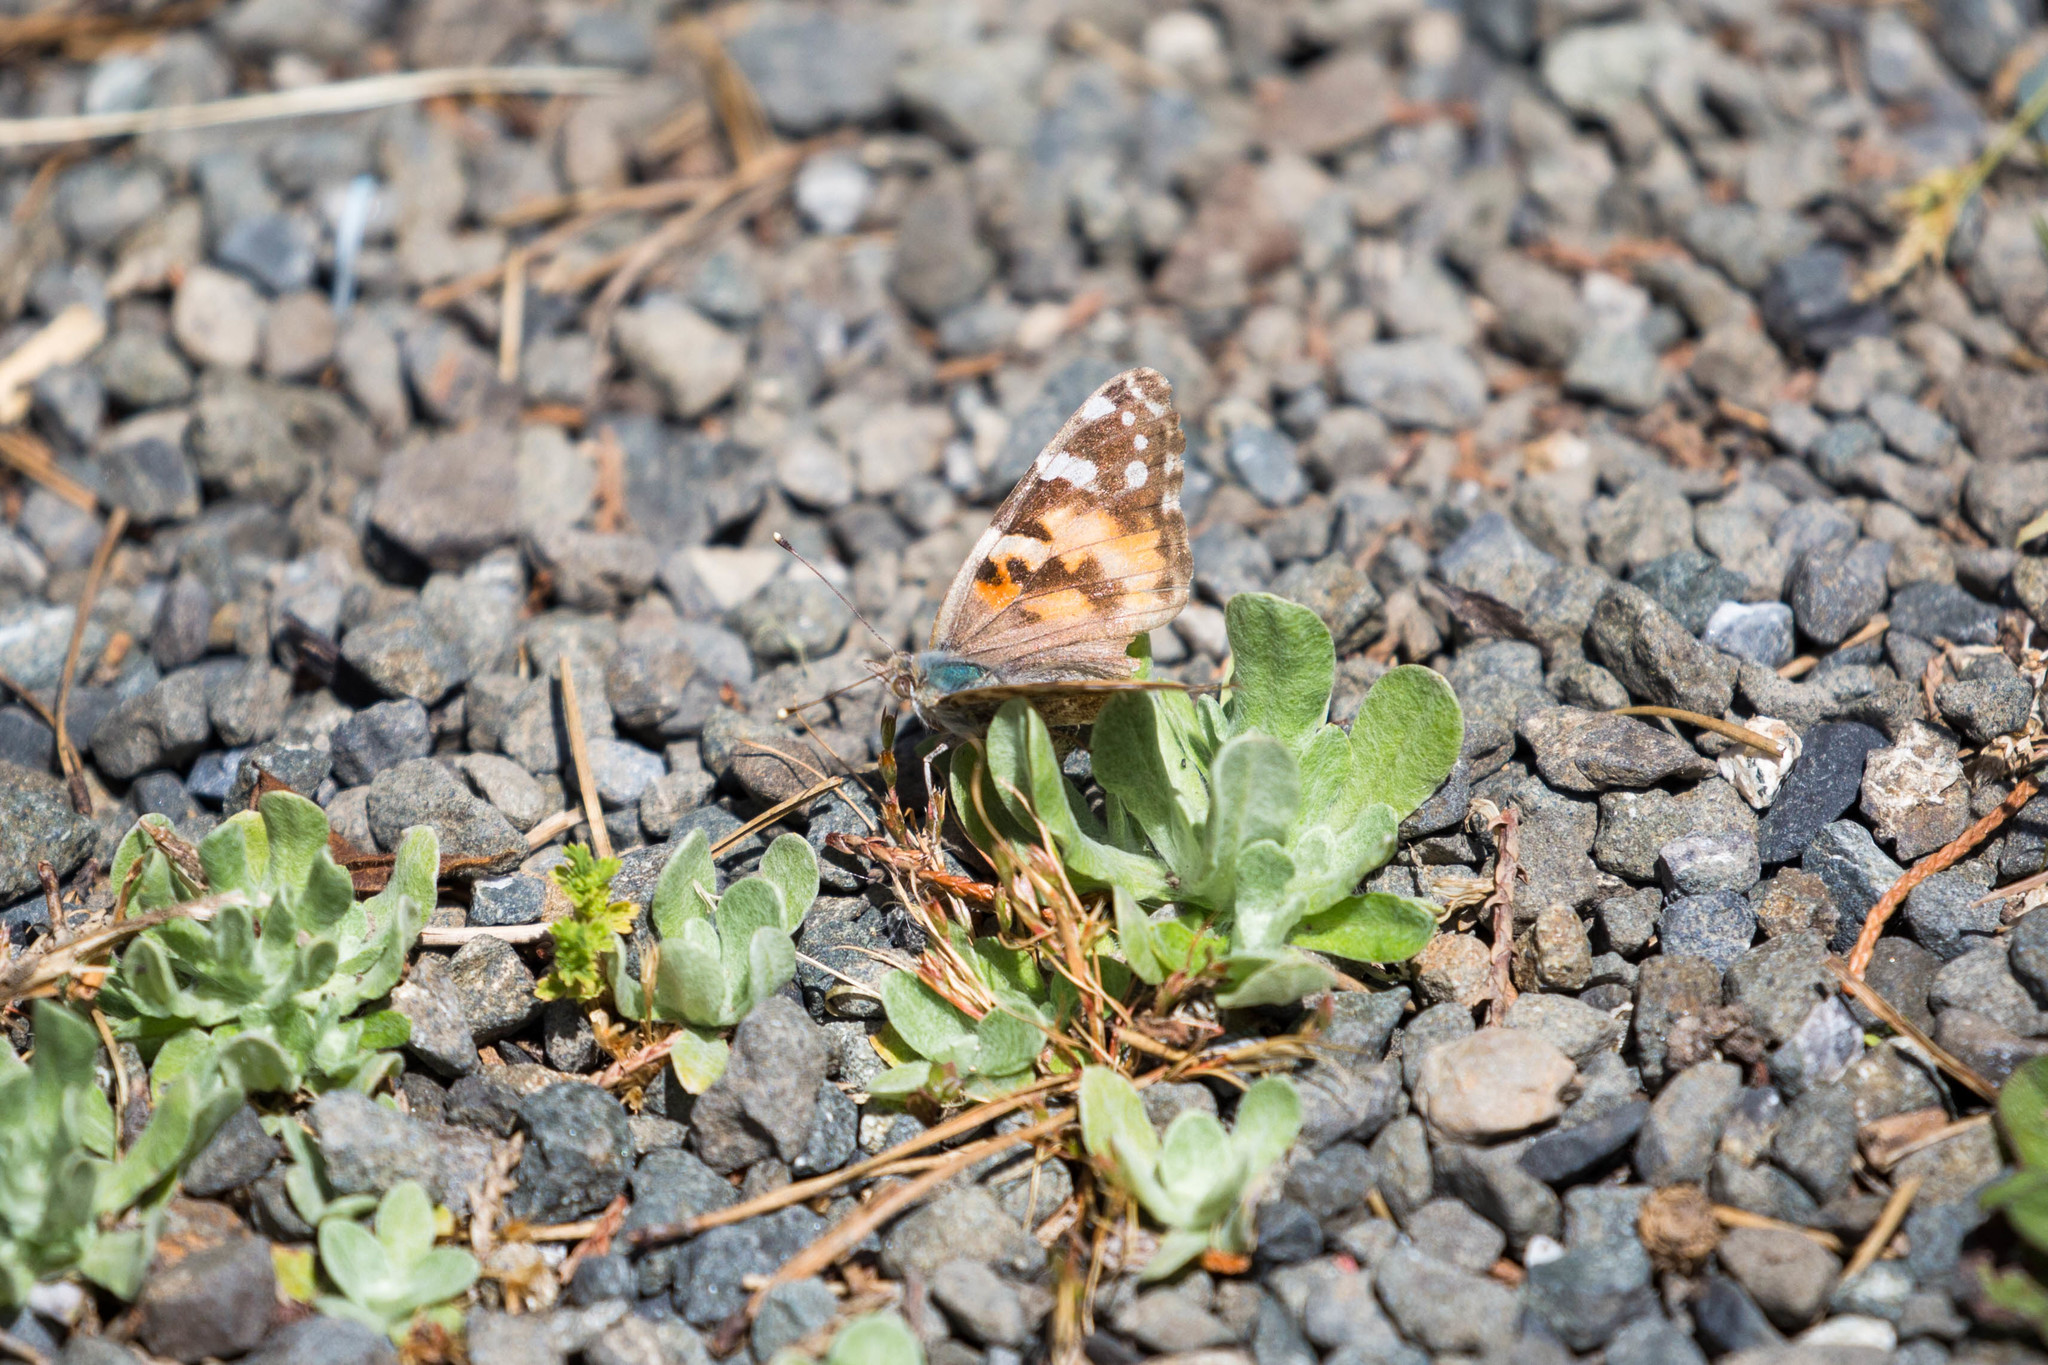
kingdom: Animalia
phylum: Arthropoda
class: Insecta
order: Lepidoptera
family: Nymphalidae
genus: Vanessa
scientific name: Vanessa cardui
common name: Painted lady
